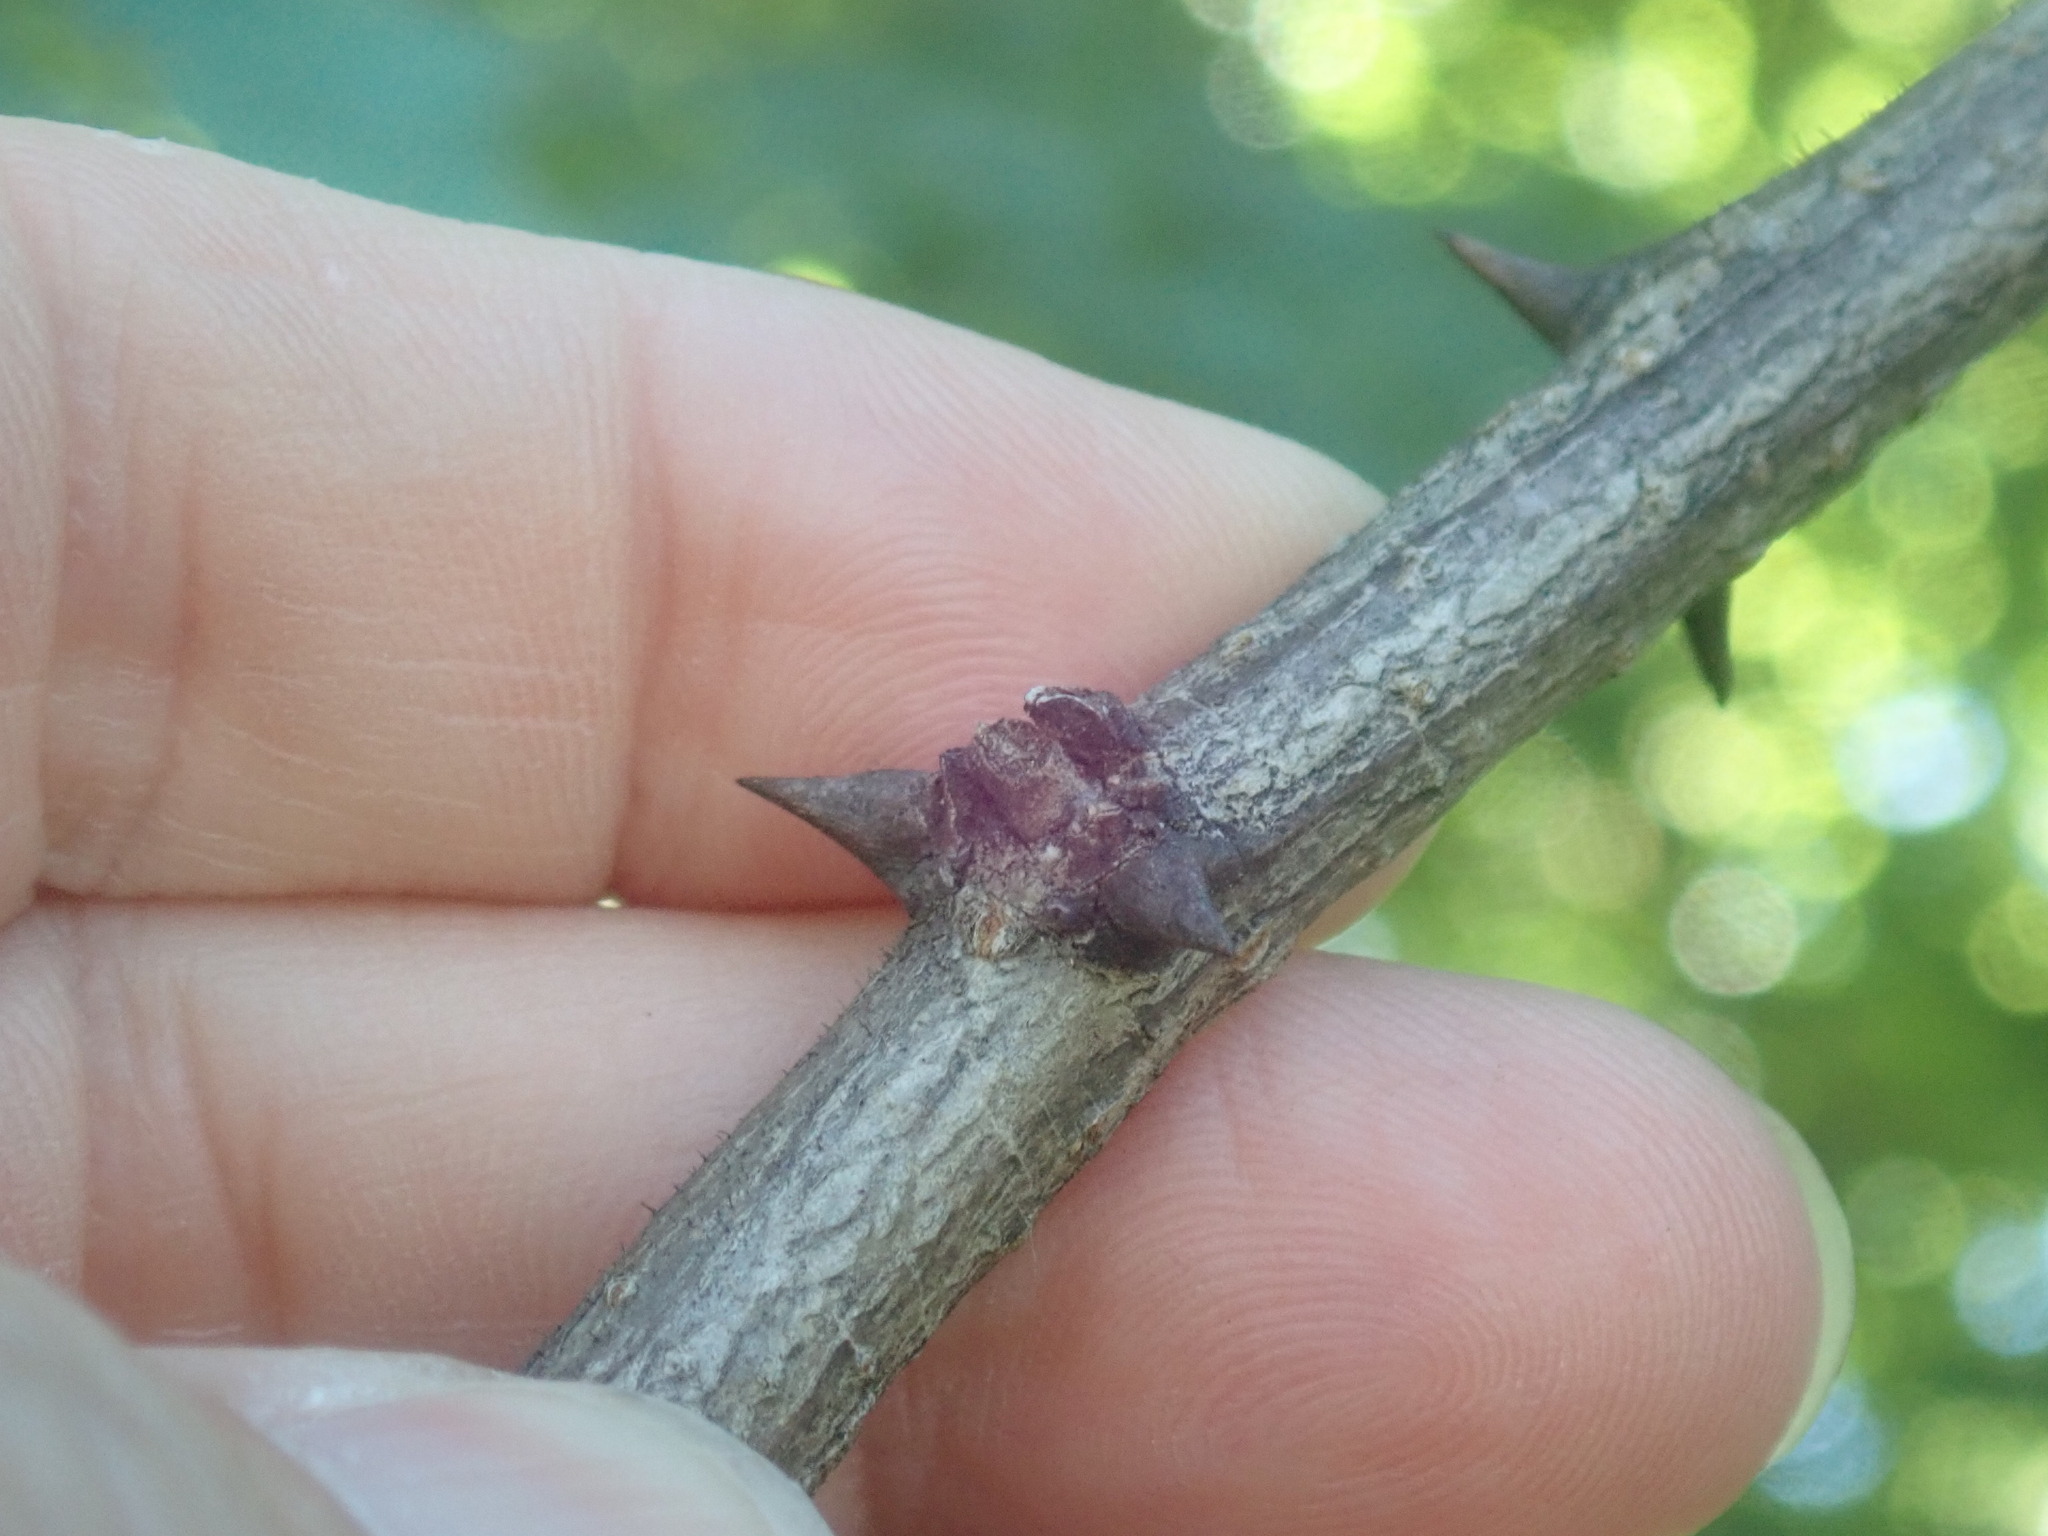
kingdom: Plantae
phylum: Tracheophyta
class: Magnoliopsida
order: Fabales
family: Fabaceae
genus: Robinia
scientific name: Robinia pseudoacacia
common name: Black locust
